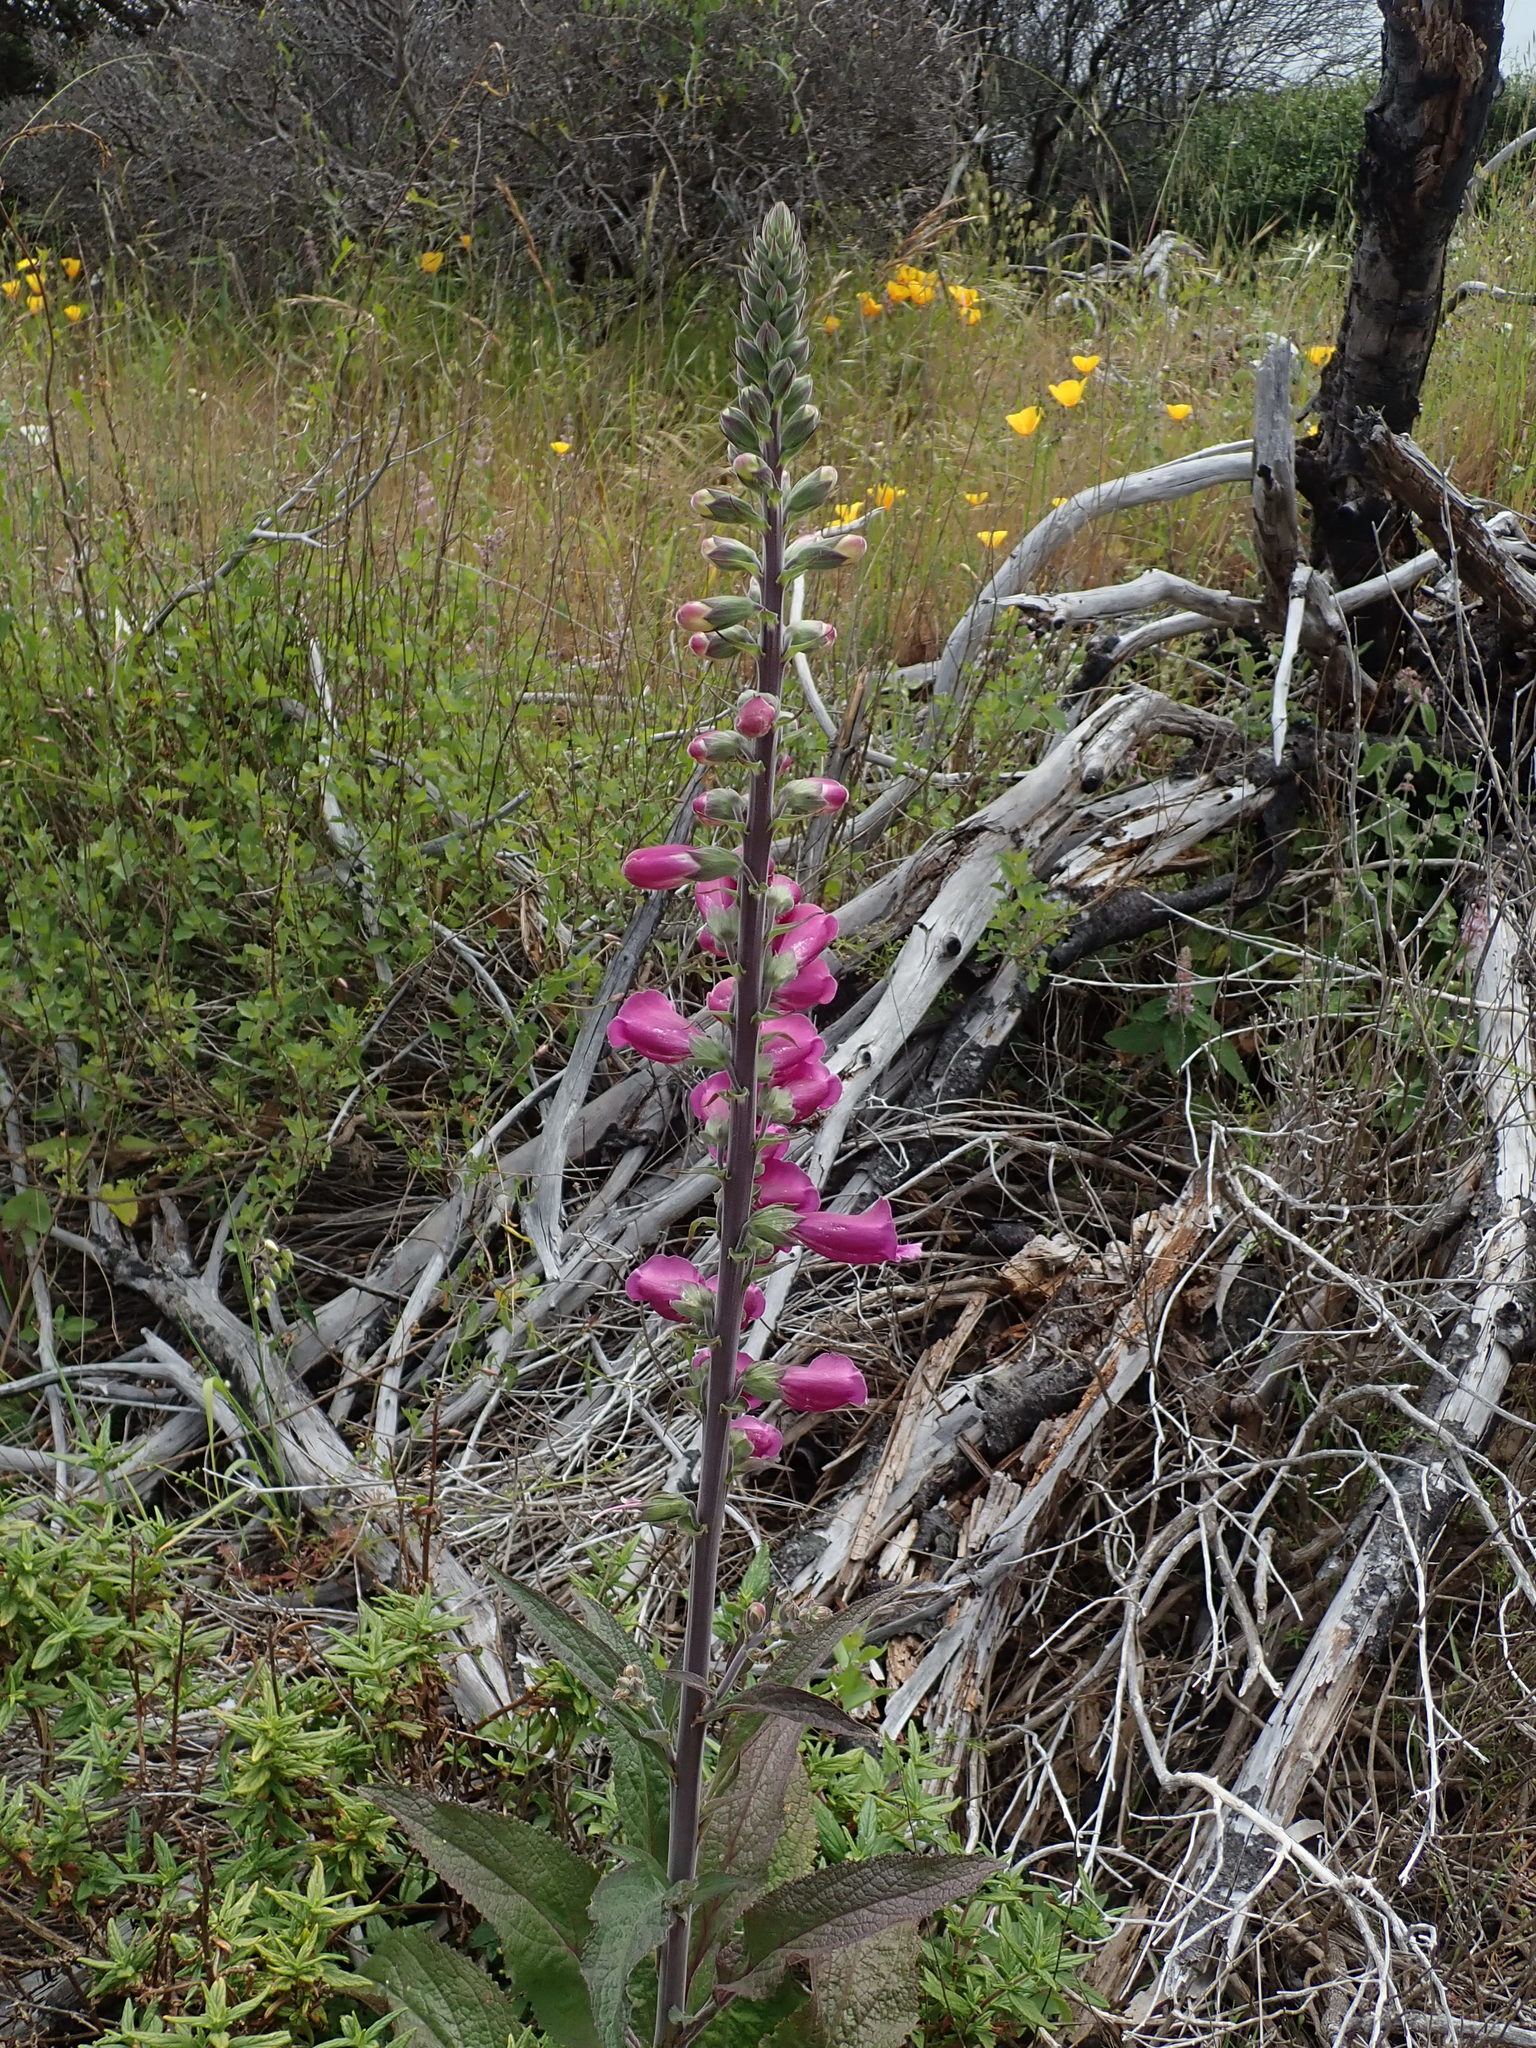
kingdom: Plantae
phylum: Tracheophyta
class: Magnoliopsida
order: Lamiales
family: Plantaginaceae
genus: Digitalis
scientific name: Digitalis purpurea
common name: Foxglove
